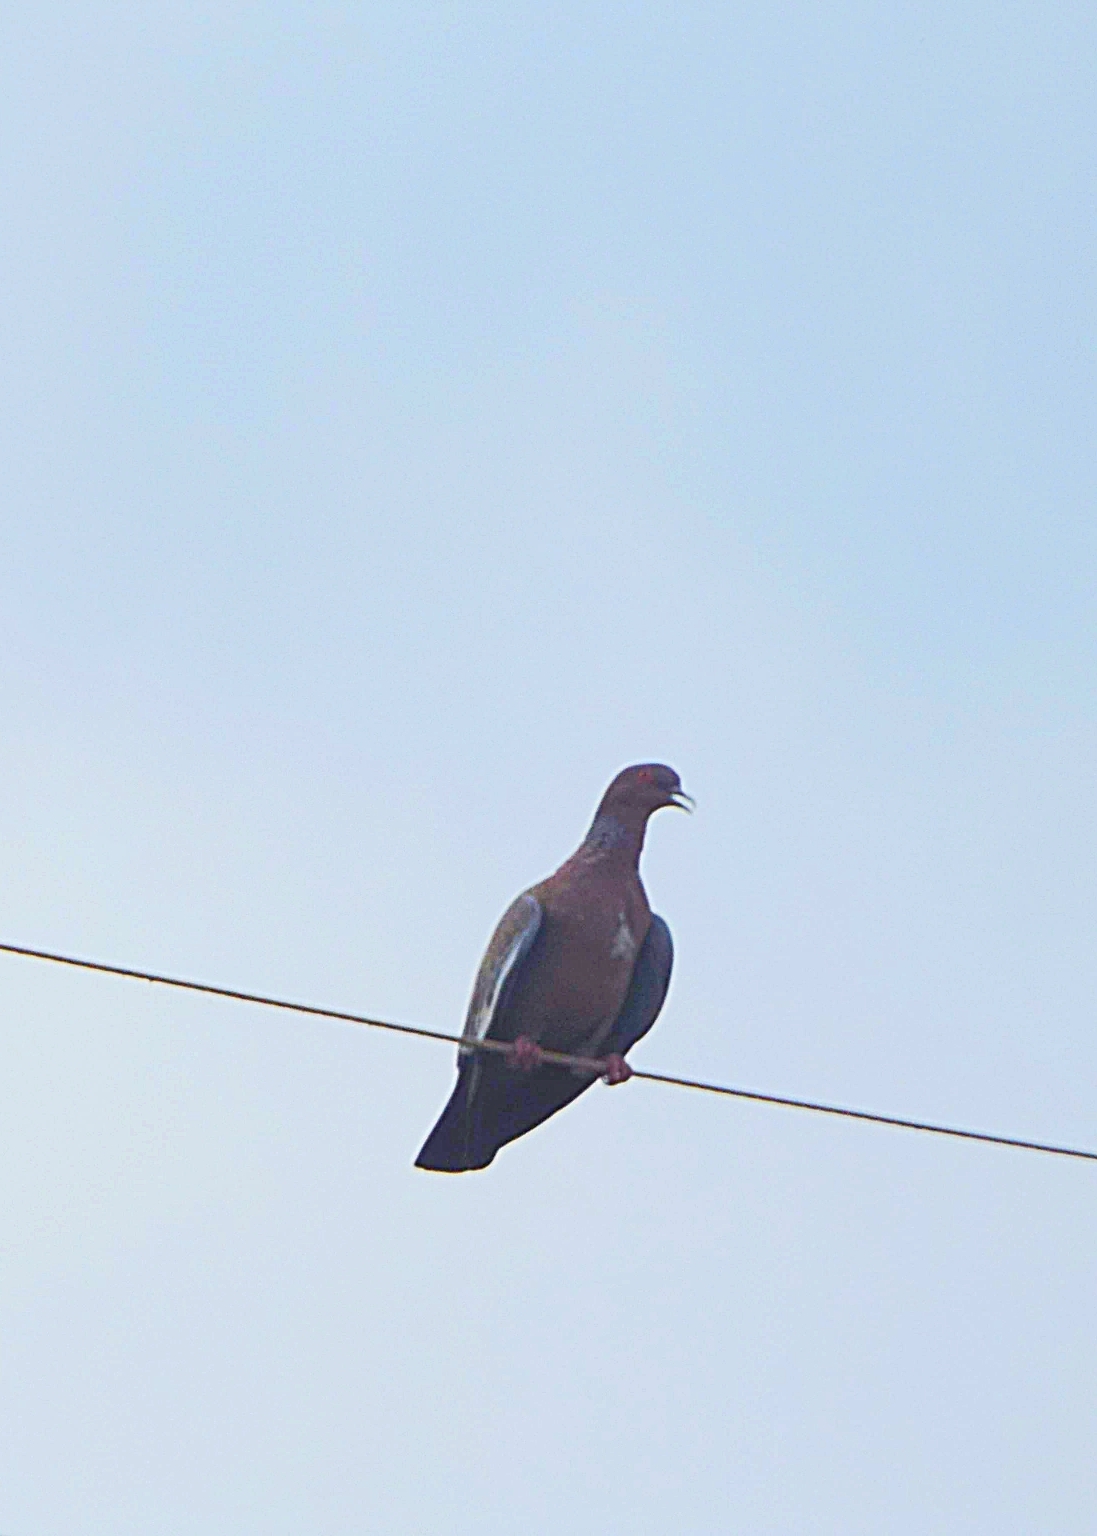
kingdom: Animalia
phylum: Chordata
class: Aves
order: Columbiformes
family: Columbidae
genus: Patagioenas
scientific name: Patagioenas picazuro
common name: Picazuro pigeon
